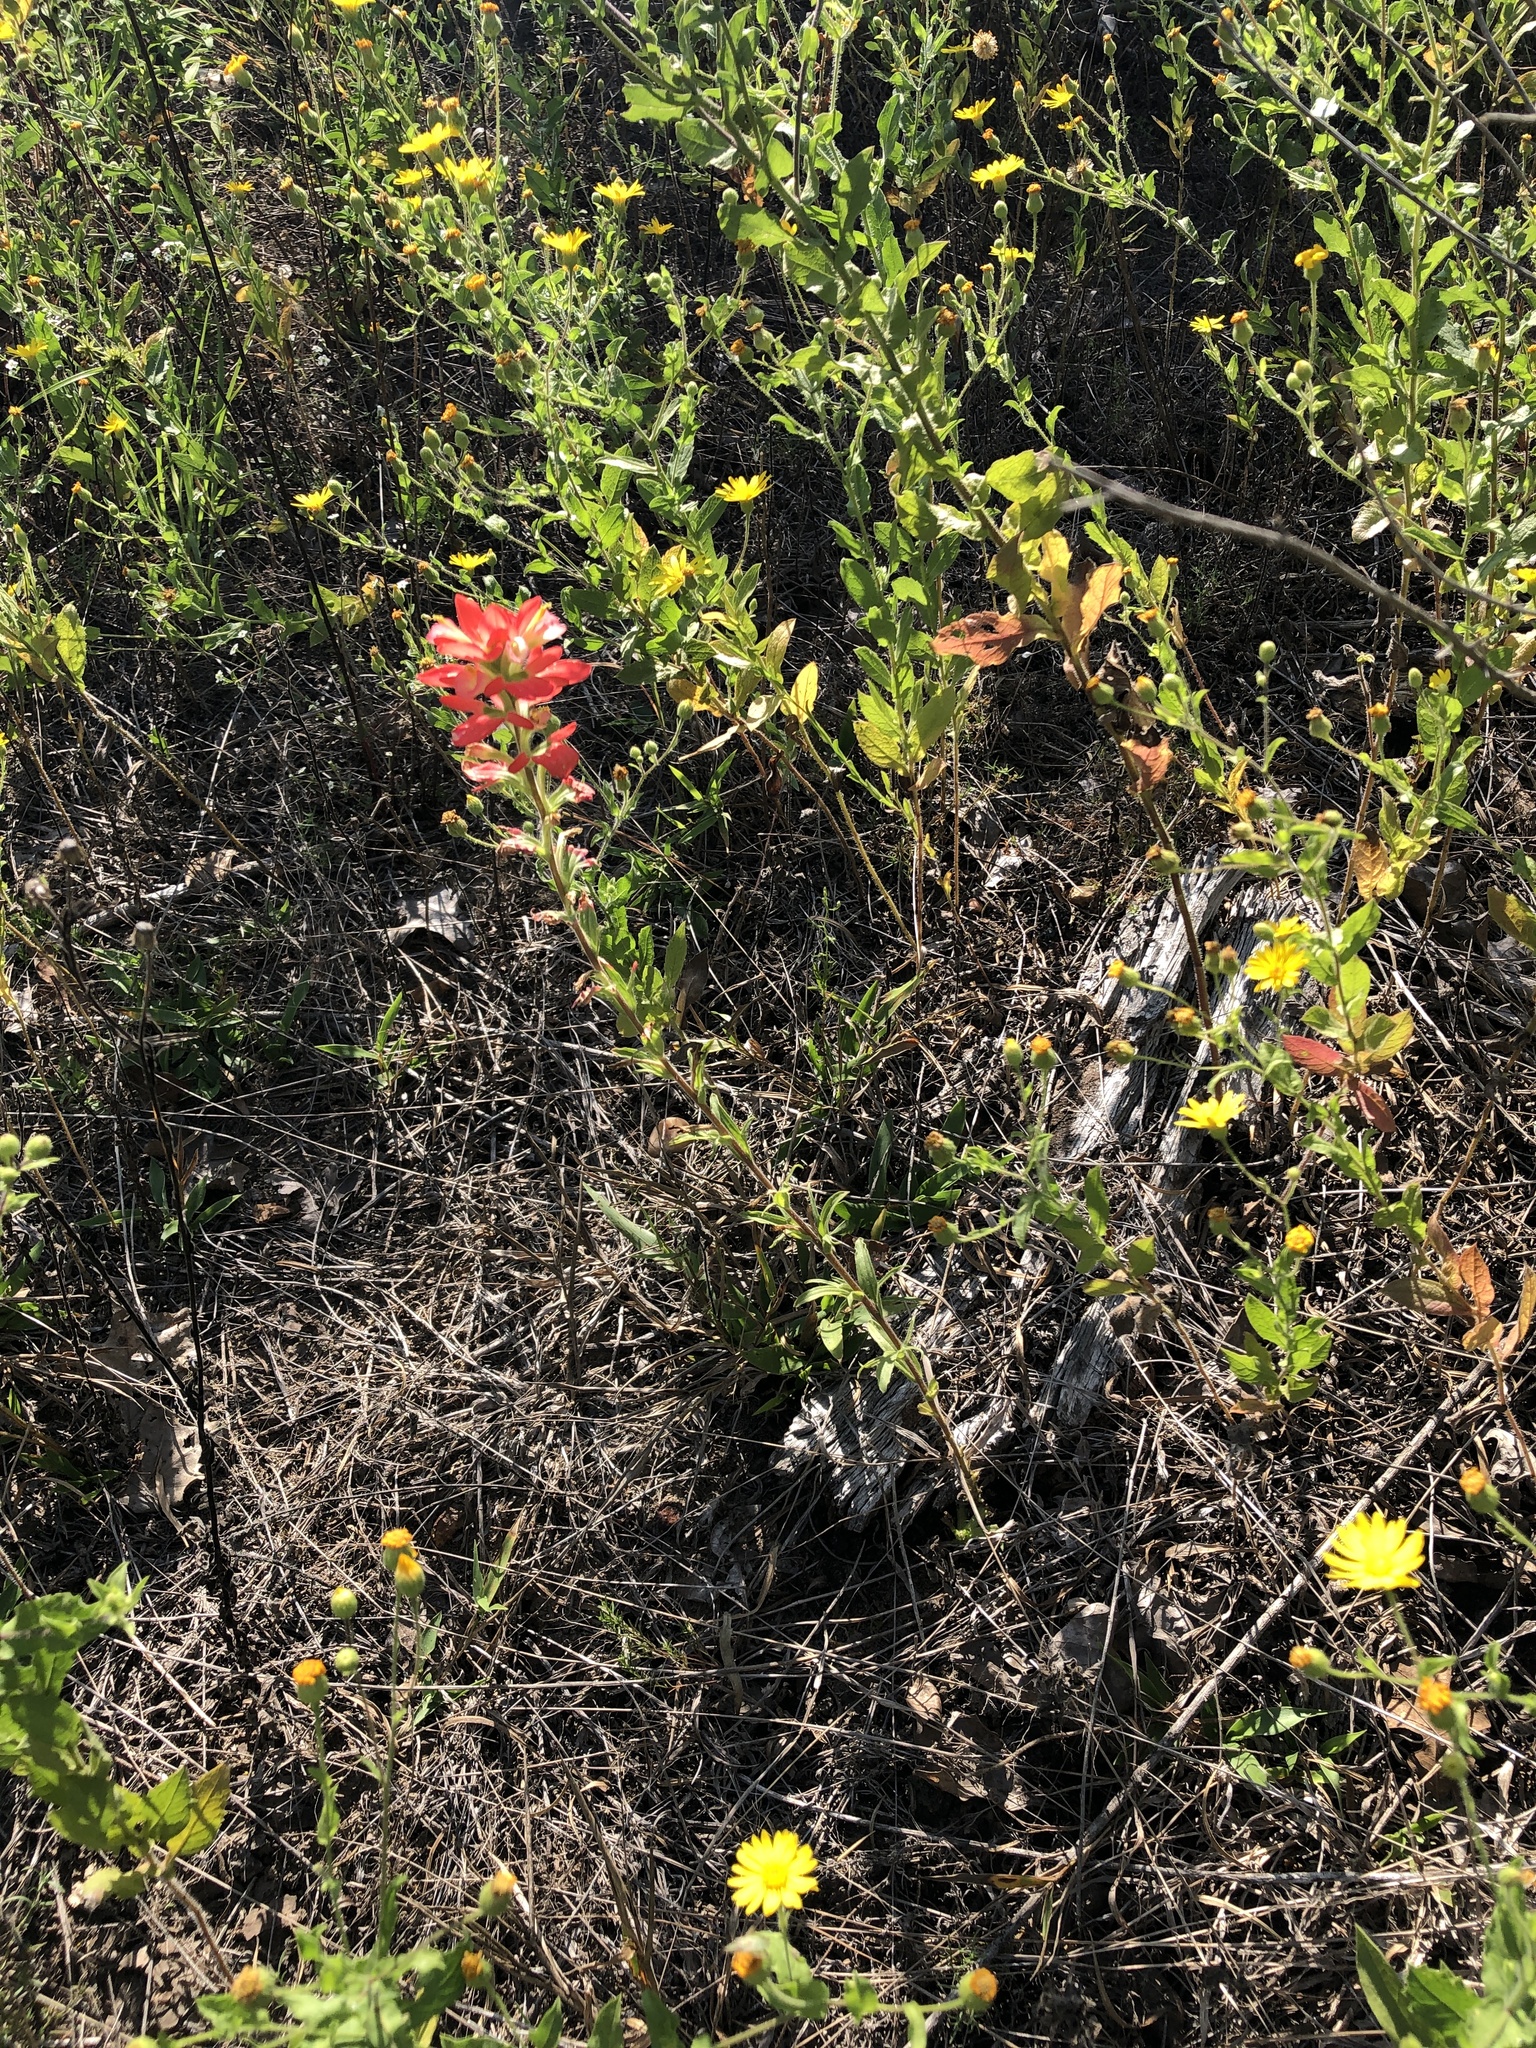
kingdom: Plantae
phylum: Tracheophyta
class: Magnoliopsida
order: Lamiales
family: Orobanchaceae
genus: Castilleja
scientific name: Castilleja indivisa
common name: Texas paintbrush
